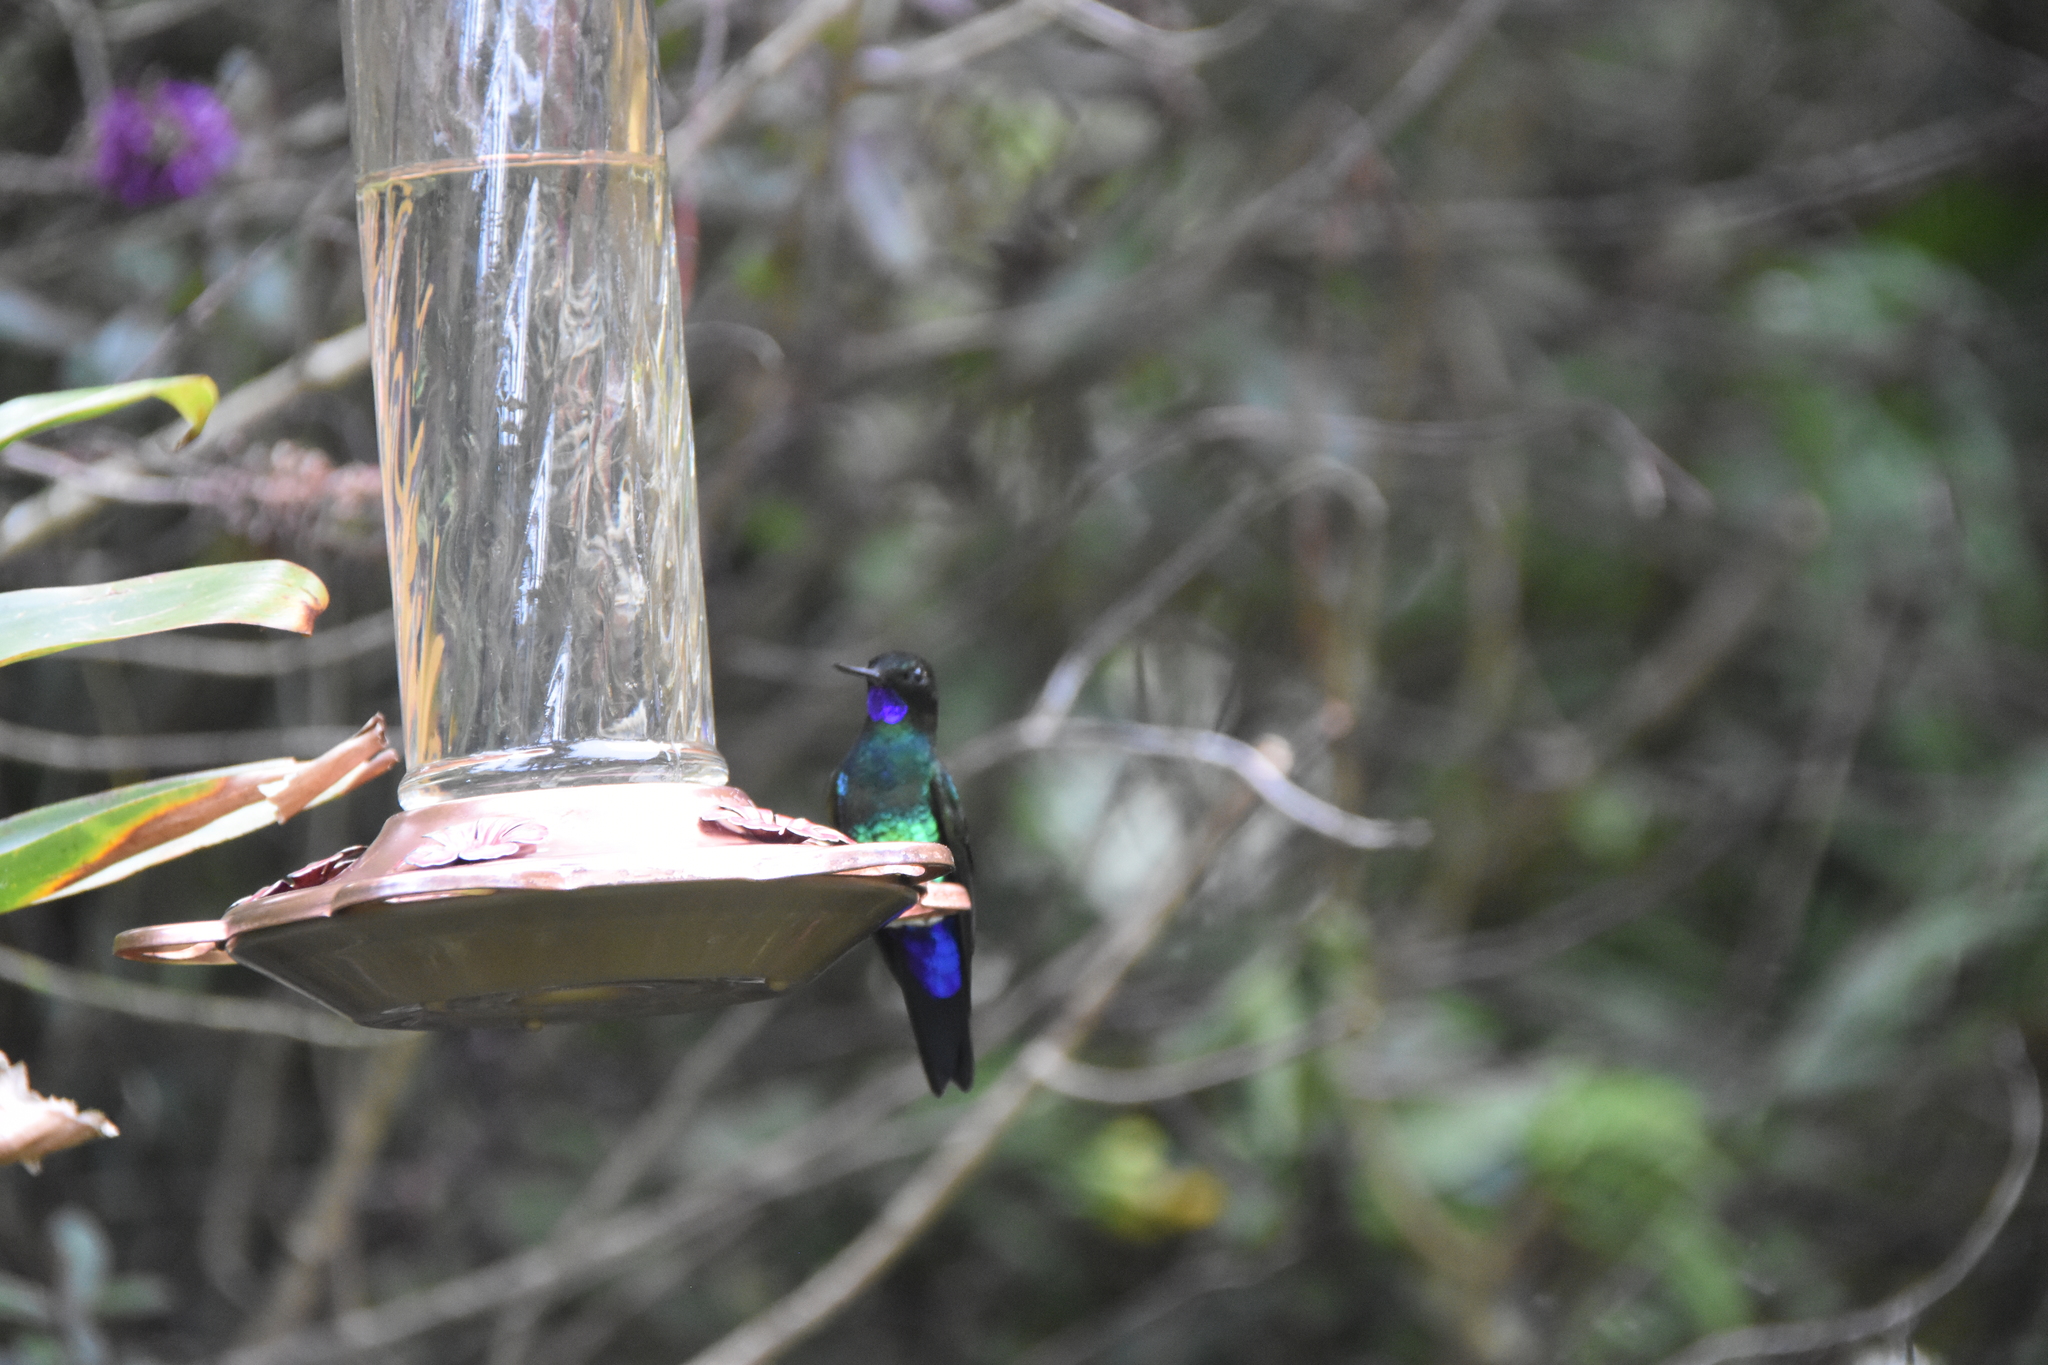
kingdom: Animalia
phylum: Chordata
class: Aves
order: Apodiformes
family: Trochilidae
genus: Eriocnemis
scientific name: Eriocnemis vestita
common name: Glowing puffleg
